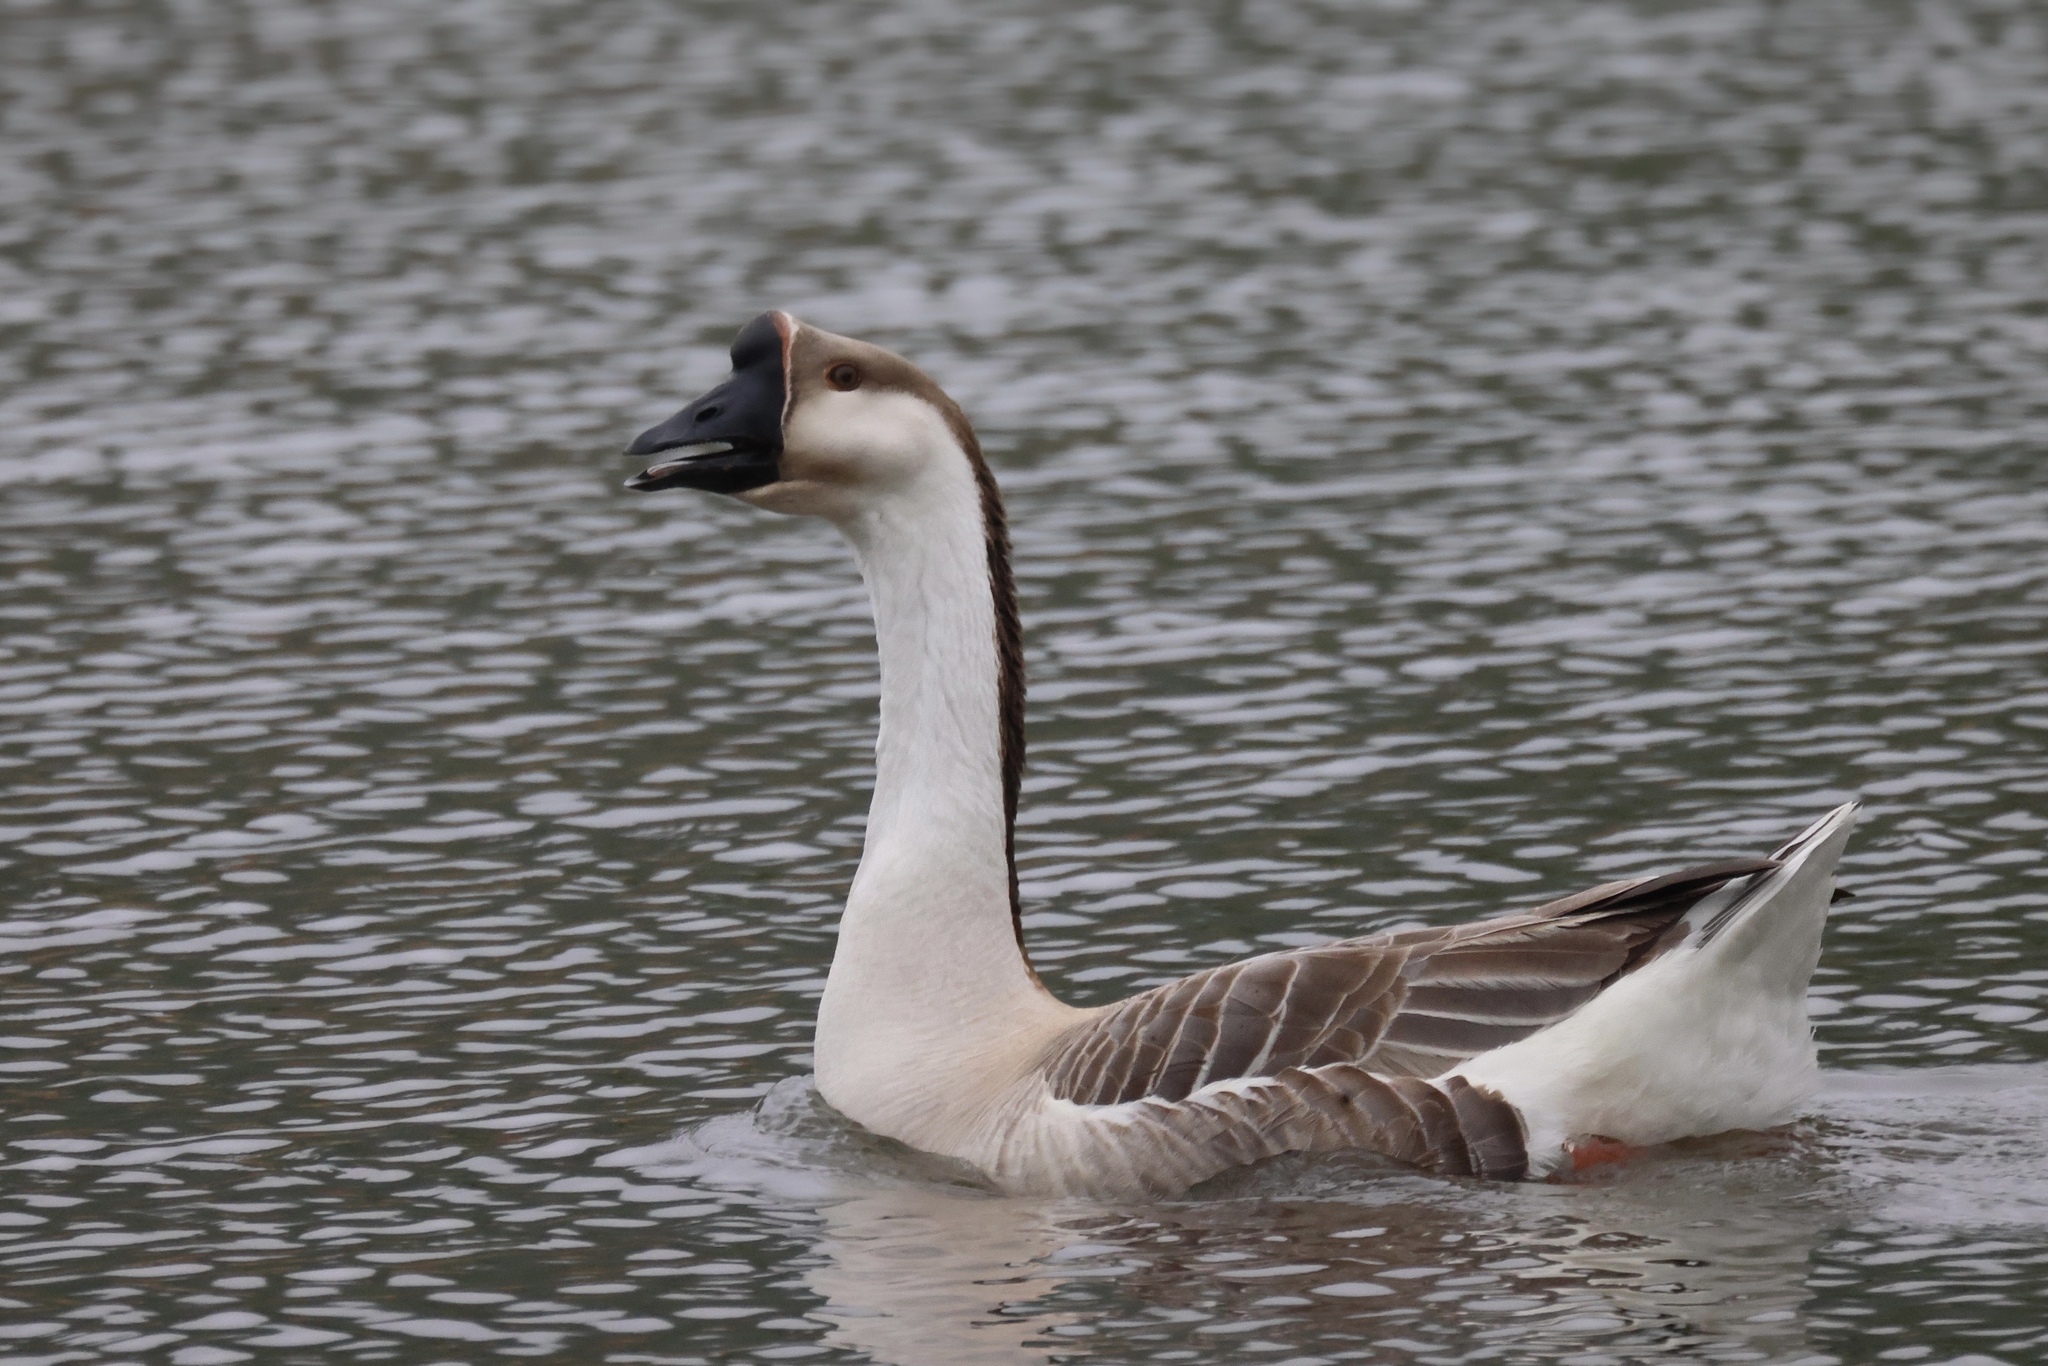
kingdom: Animalia
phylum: Chordata
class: Aves
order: Anseriformes
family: Anatidae
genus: Anser
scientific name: Anser cygnoides
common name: Swan goose
